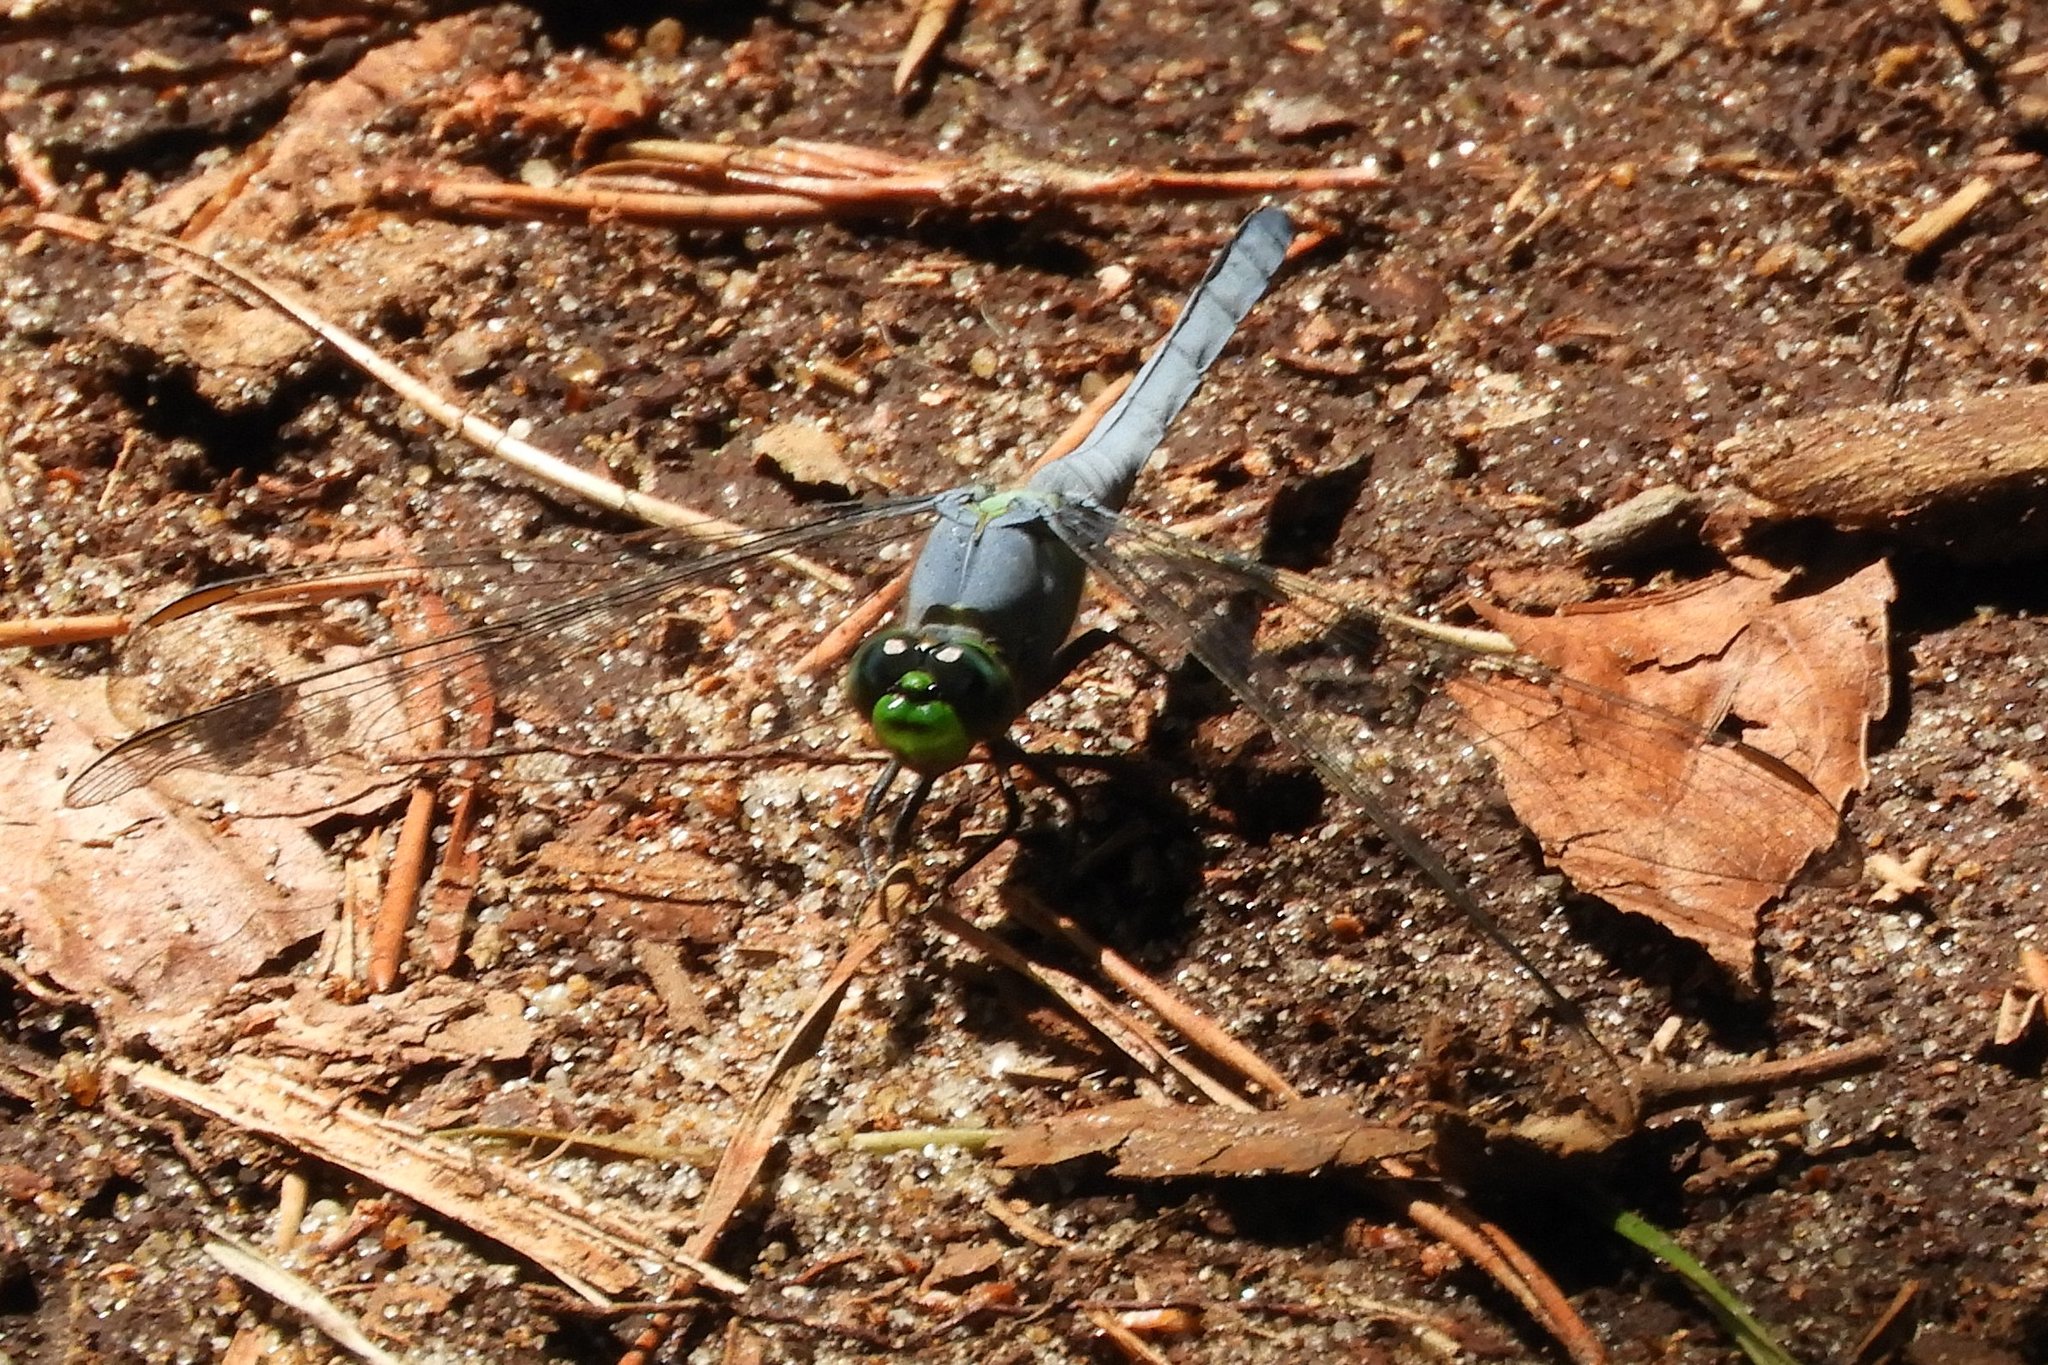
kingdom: Animalia
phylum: Arthropoda
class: Insecta
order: Odonata
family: Libellulidae
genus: Erythemis
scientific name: Erythemis simplicicollis
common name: Eastern pondhawk
